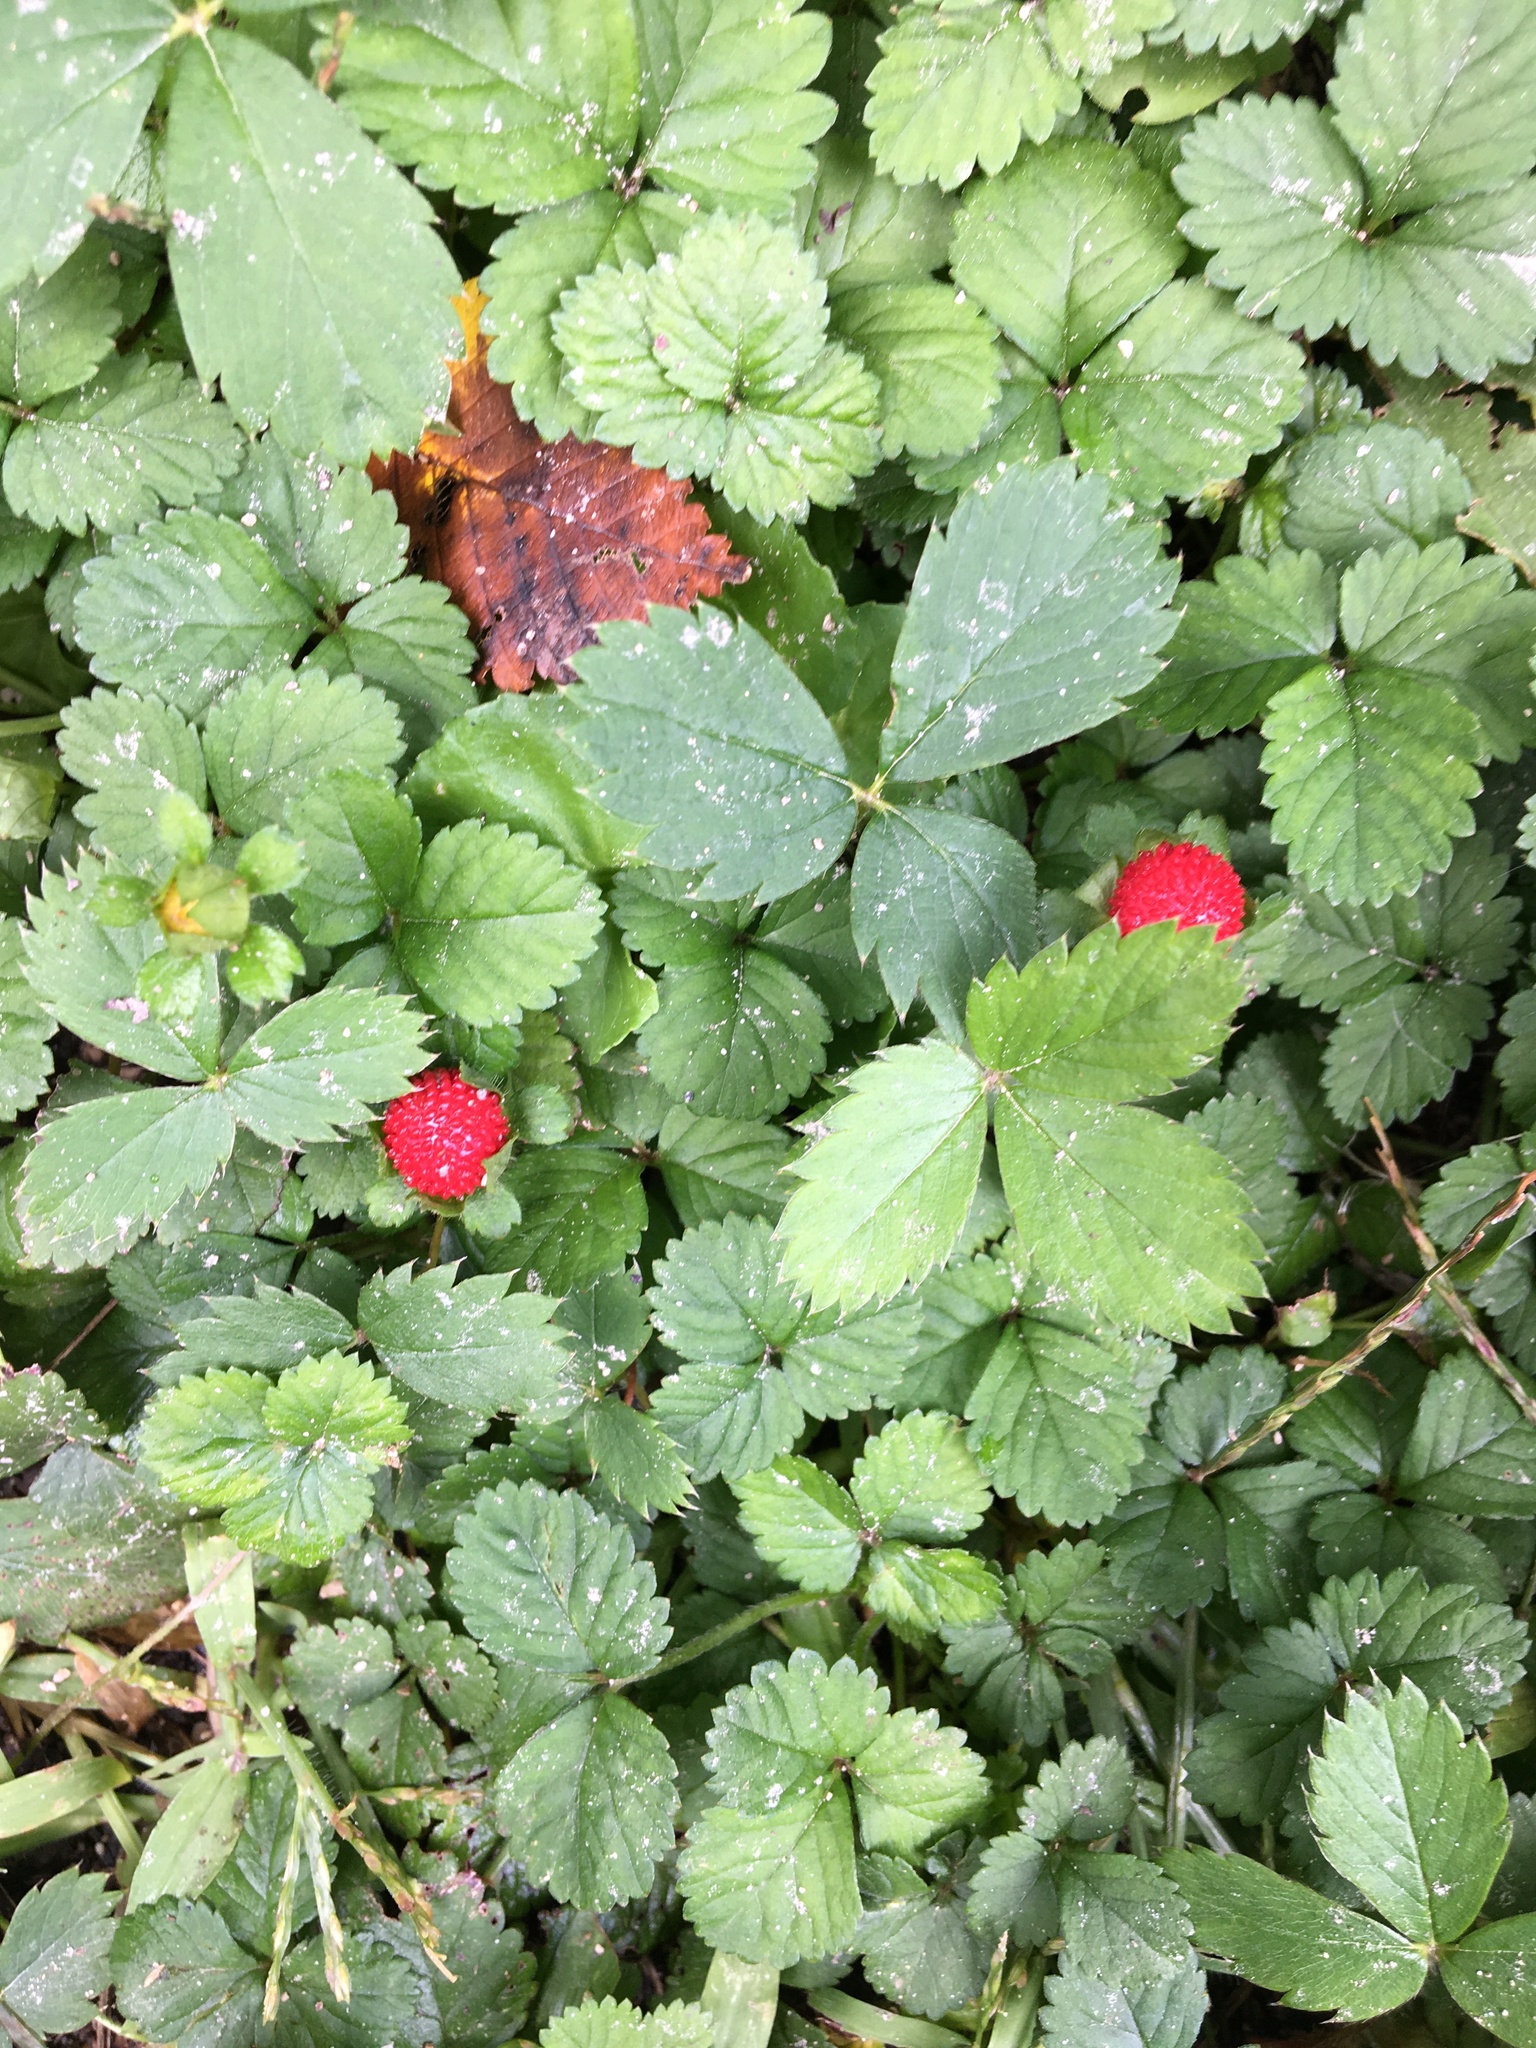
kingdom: Plantae
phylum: Tracheophyta
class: Magnoliopsida
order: Rosales
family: Rosaceae
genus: Potentilla
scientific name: Potentilla indica
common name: Yellow-flowered strawberry
